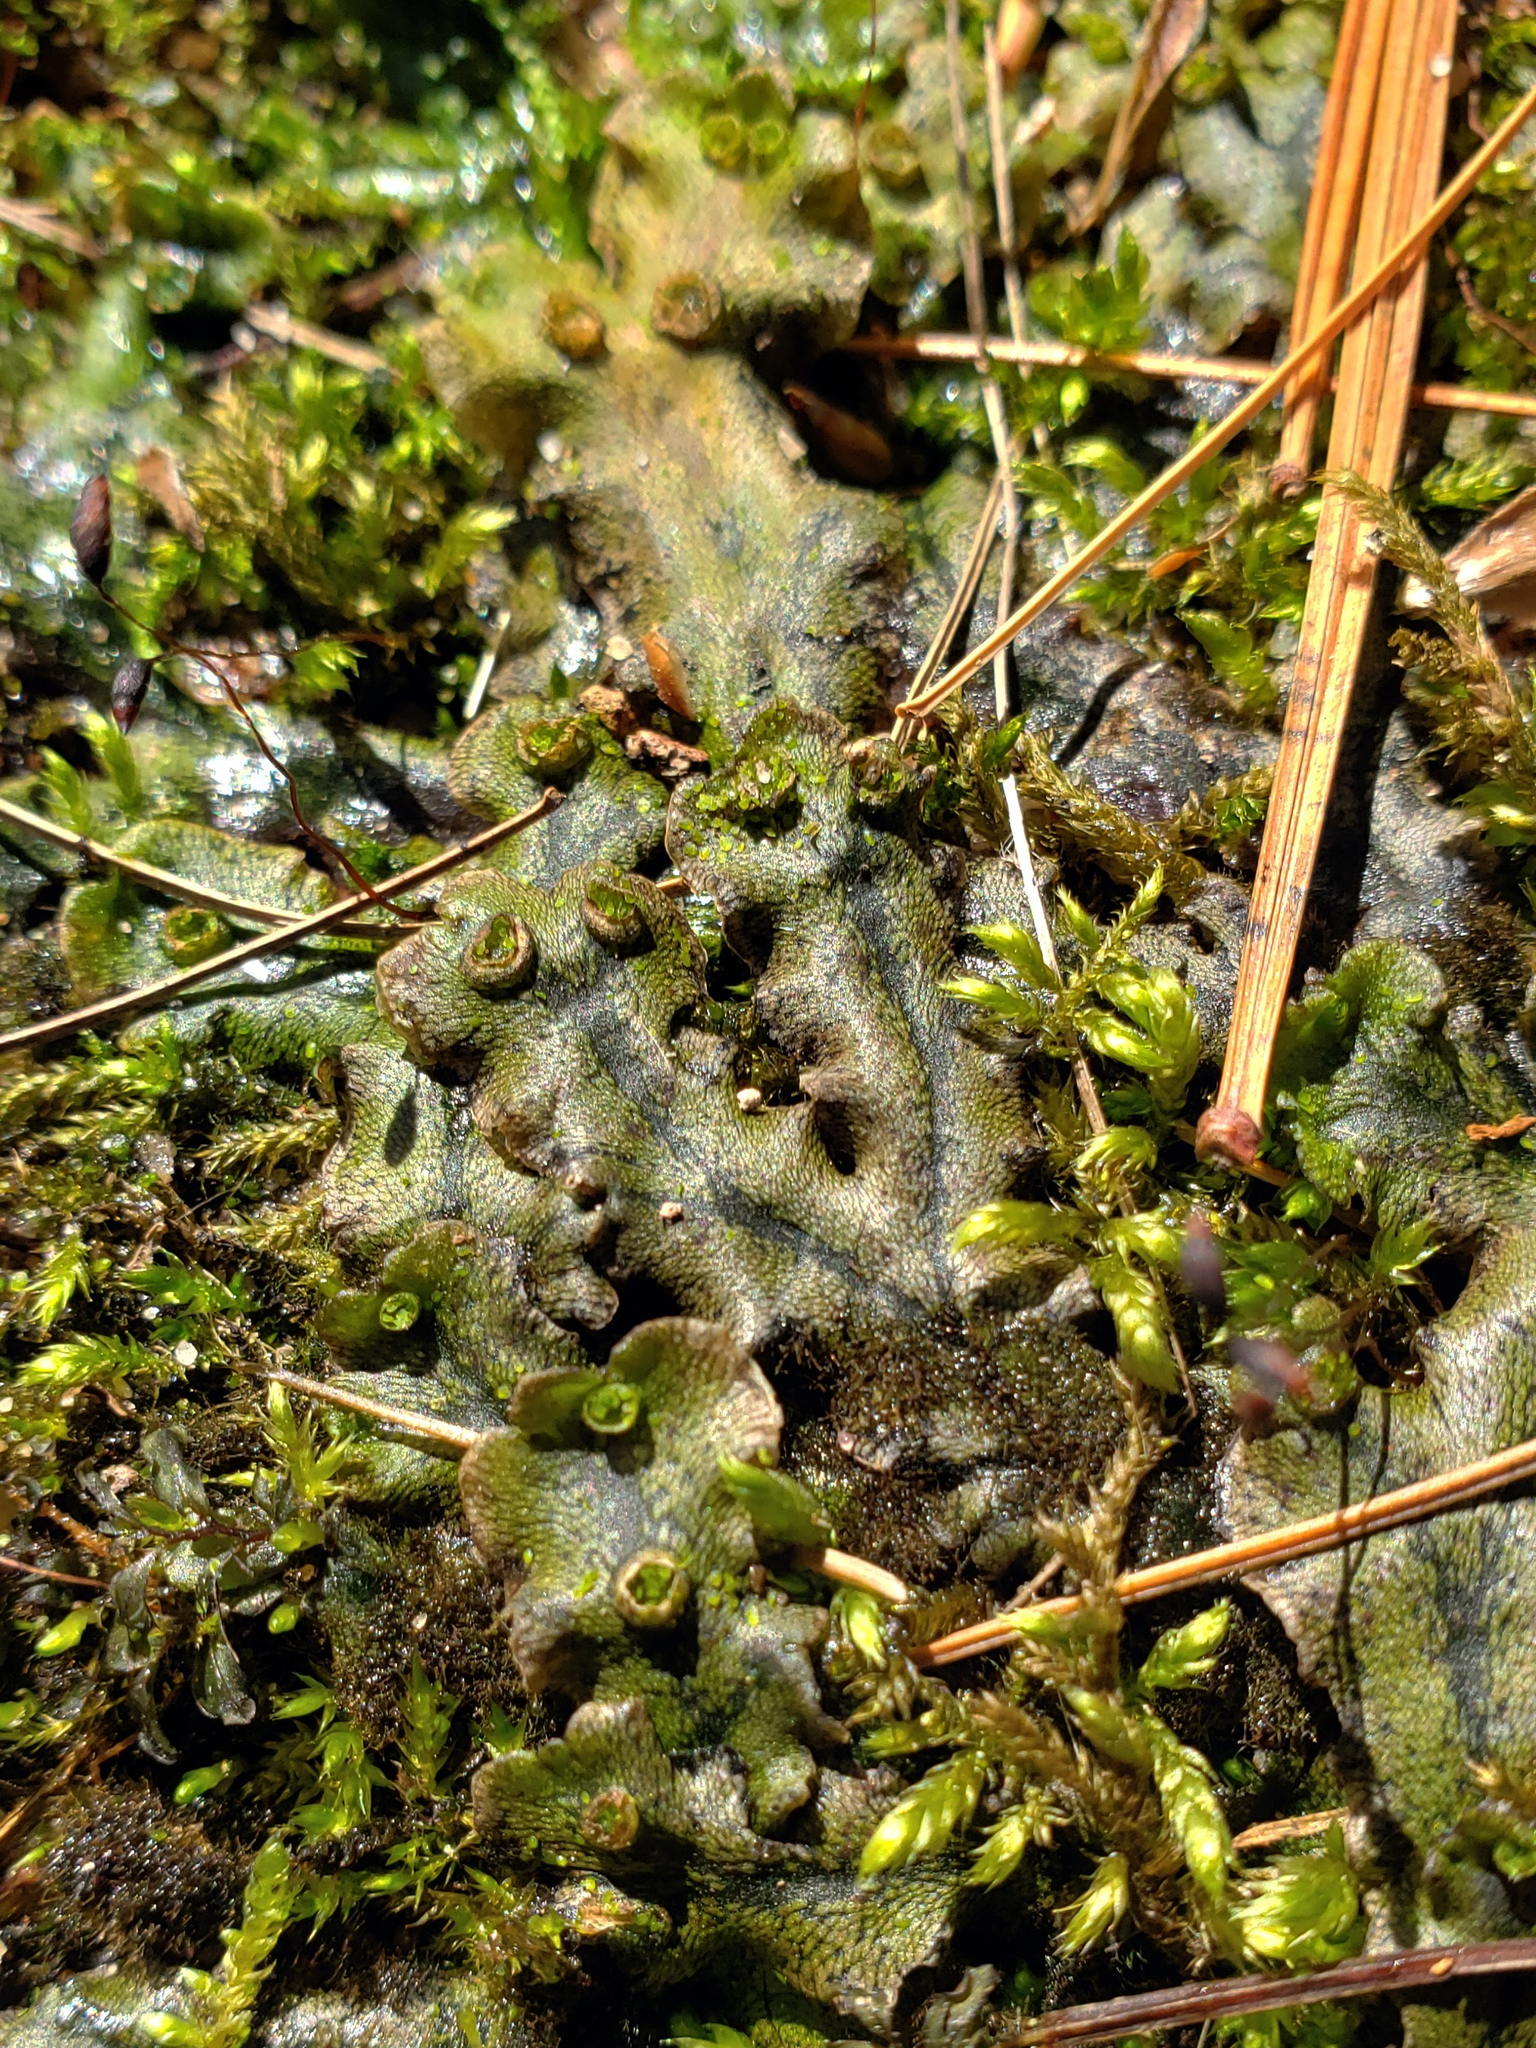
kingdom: Plantae
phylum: Marchantiophyta
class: Marchantiopsida
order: Marchantiales
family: Marchantiaceae
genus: Marchantia
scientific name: Marchantia polymorpha
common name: Common liverwort
